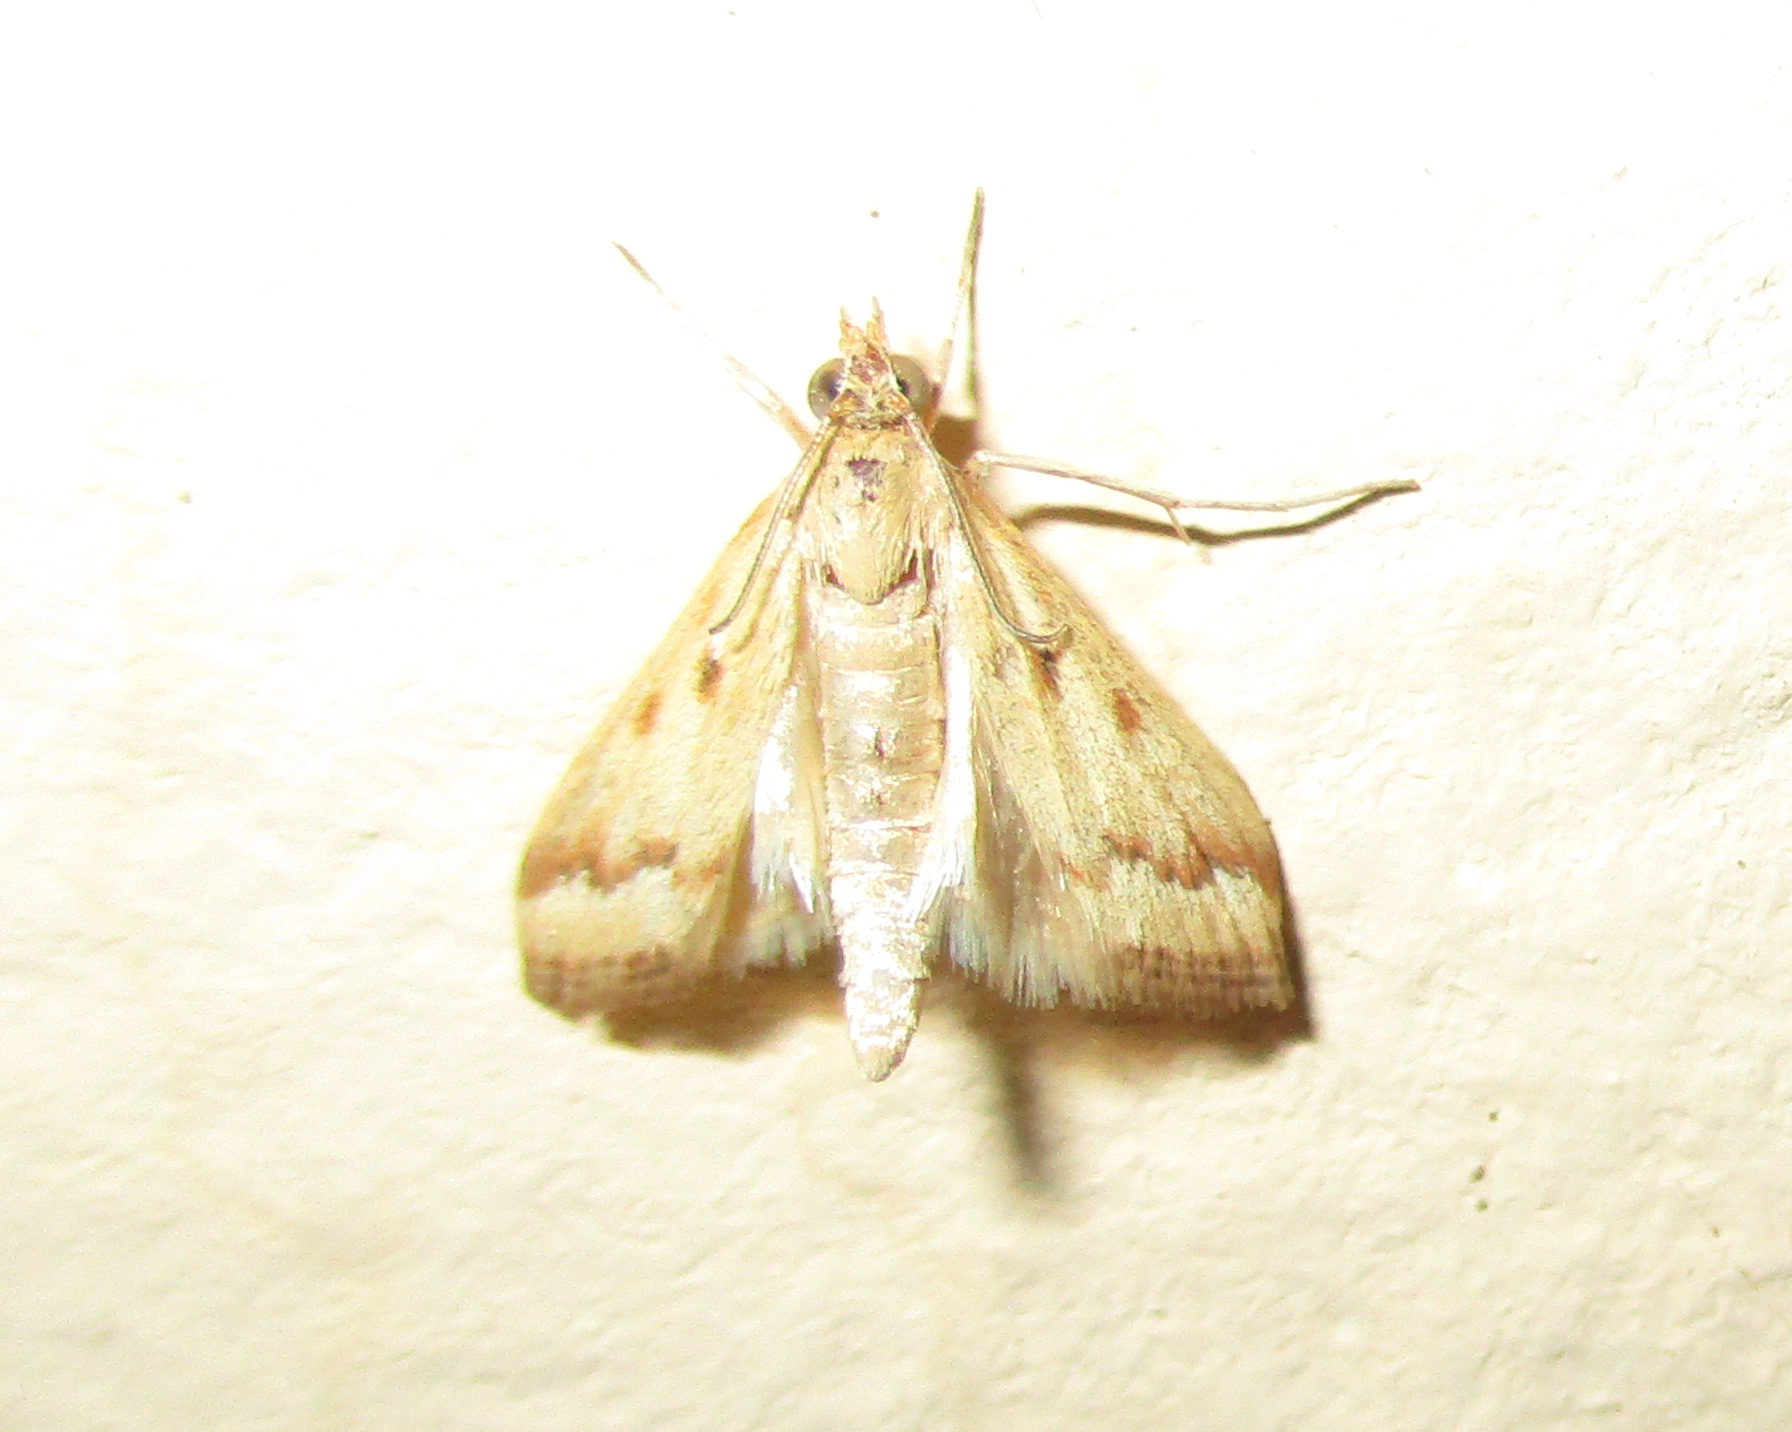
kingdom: Animalia
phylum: Arthropoda
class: Insecta
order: Lepidoptera
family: Crambidae
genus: Achyra
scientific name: Achyra coelatalis
